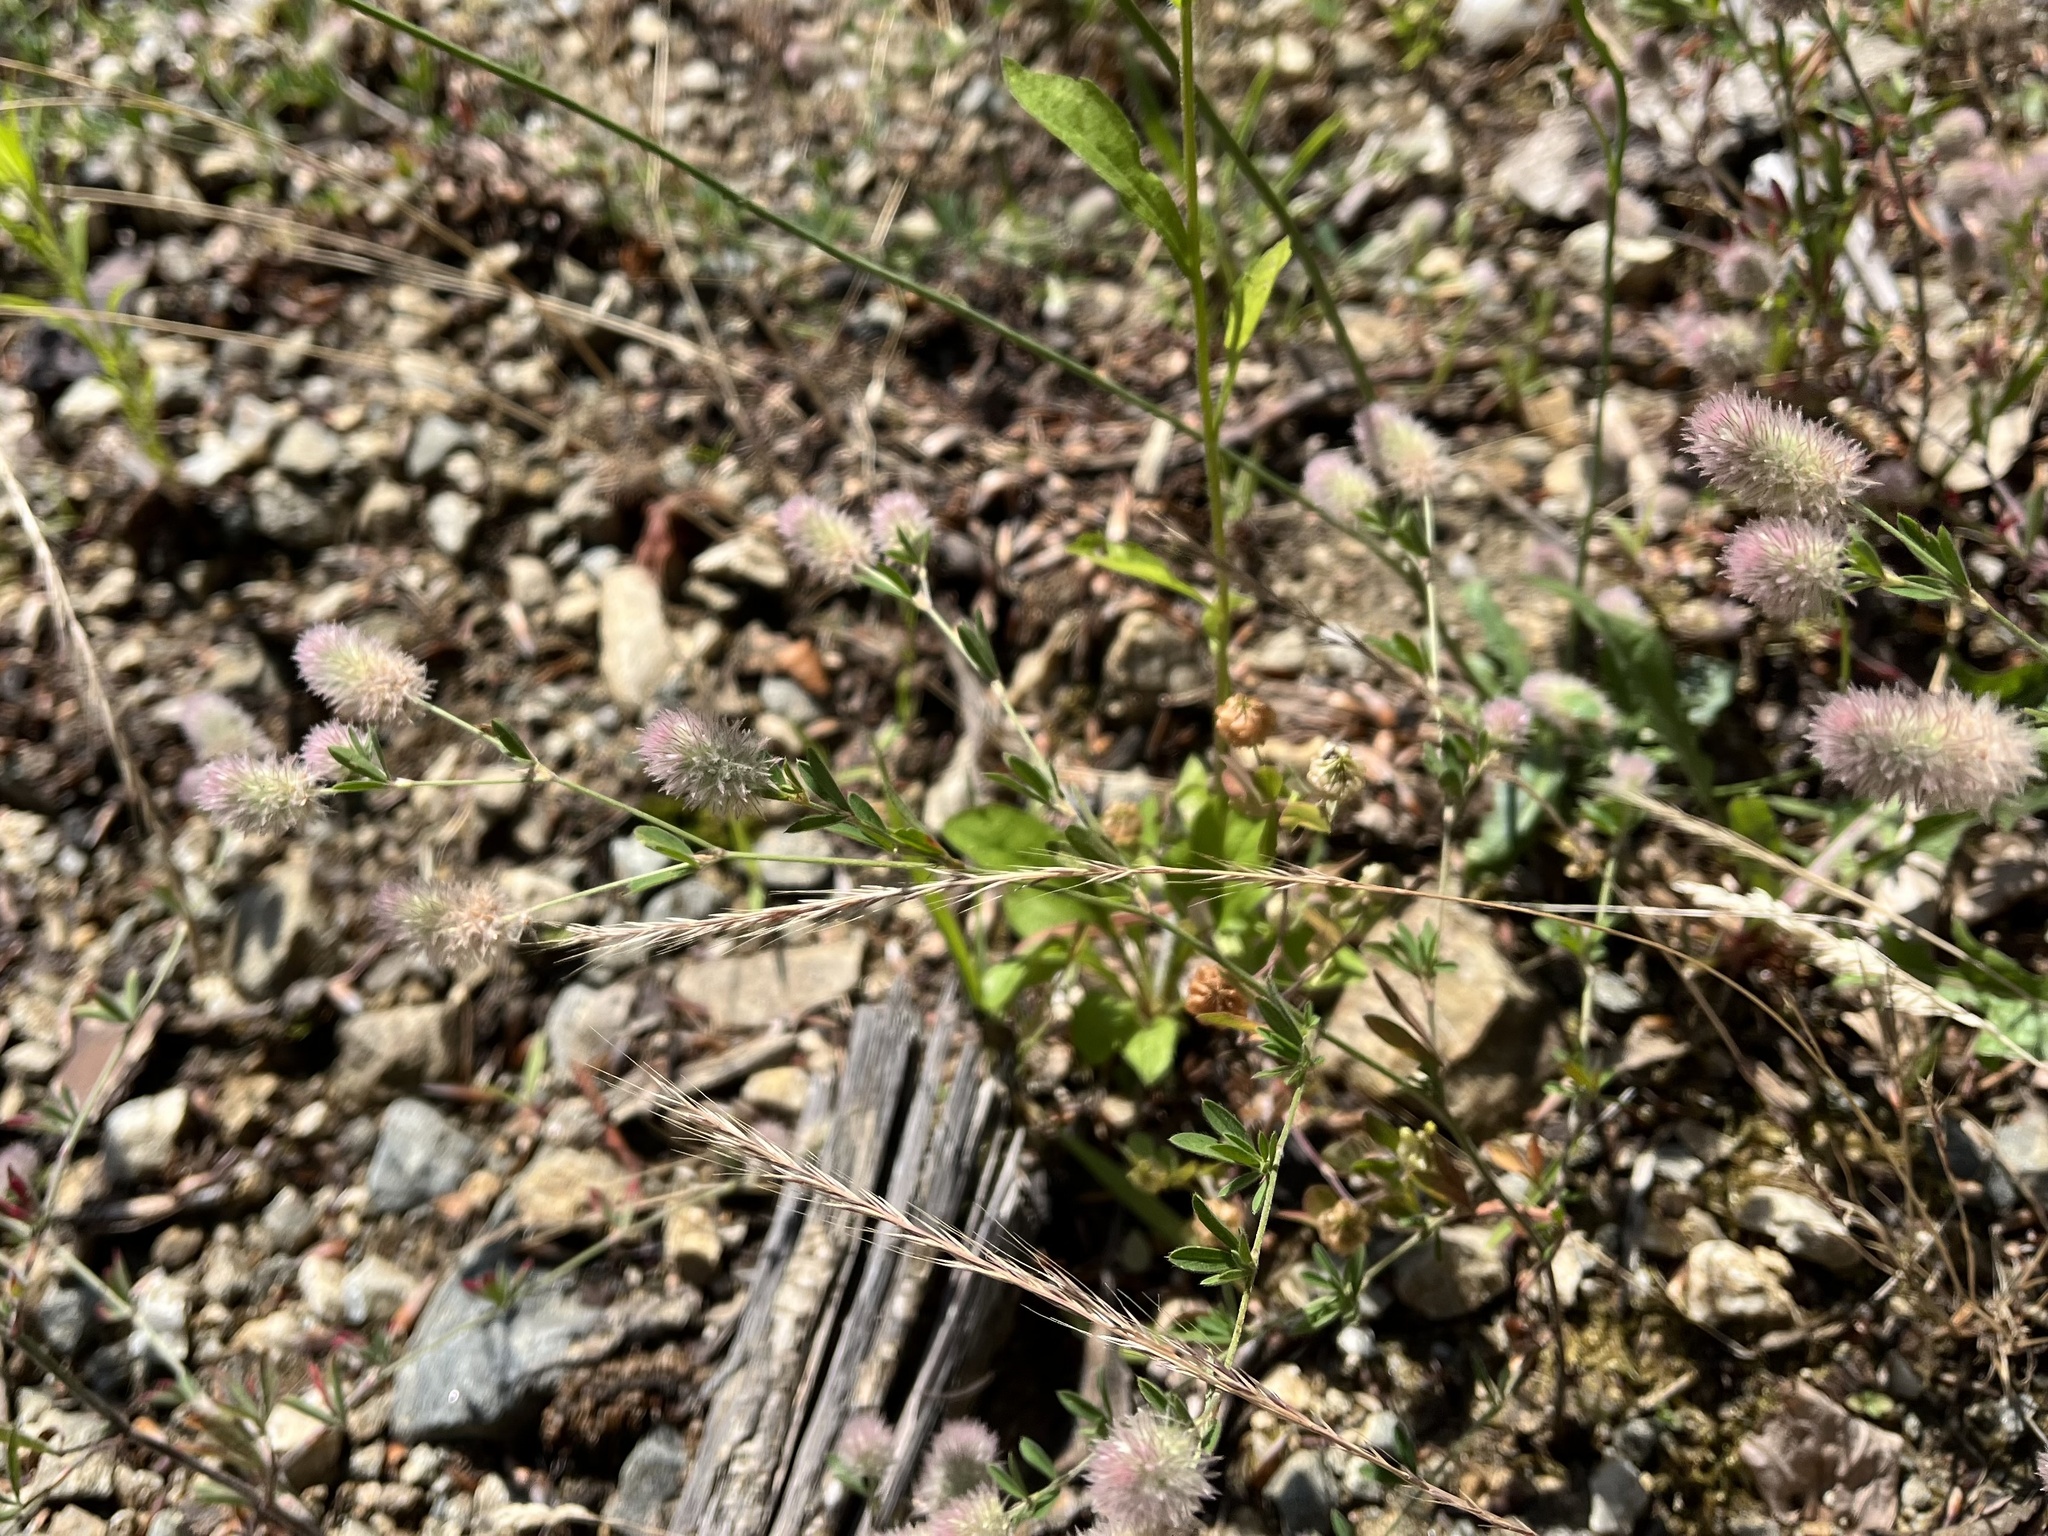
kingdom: Plantae
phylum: Tracheophyta
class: Magnoliopsida
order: Fabales
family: Fabaceae
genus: Trifolium
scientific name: Trifolium arvense
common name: Hare's-foot clover
